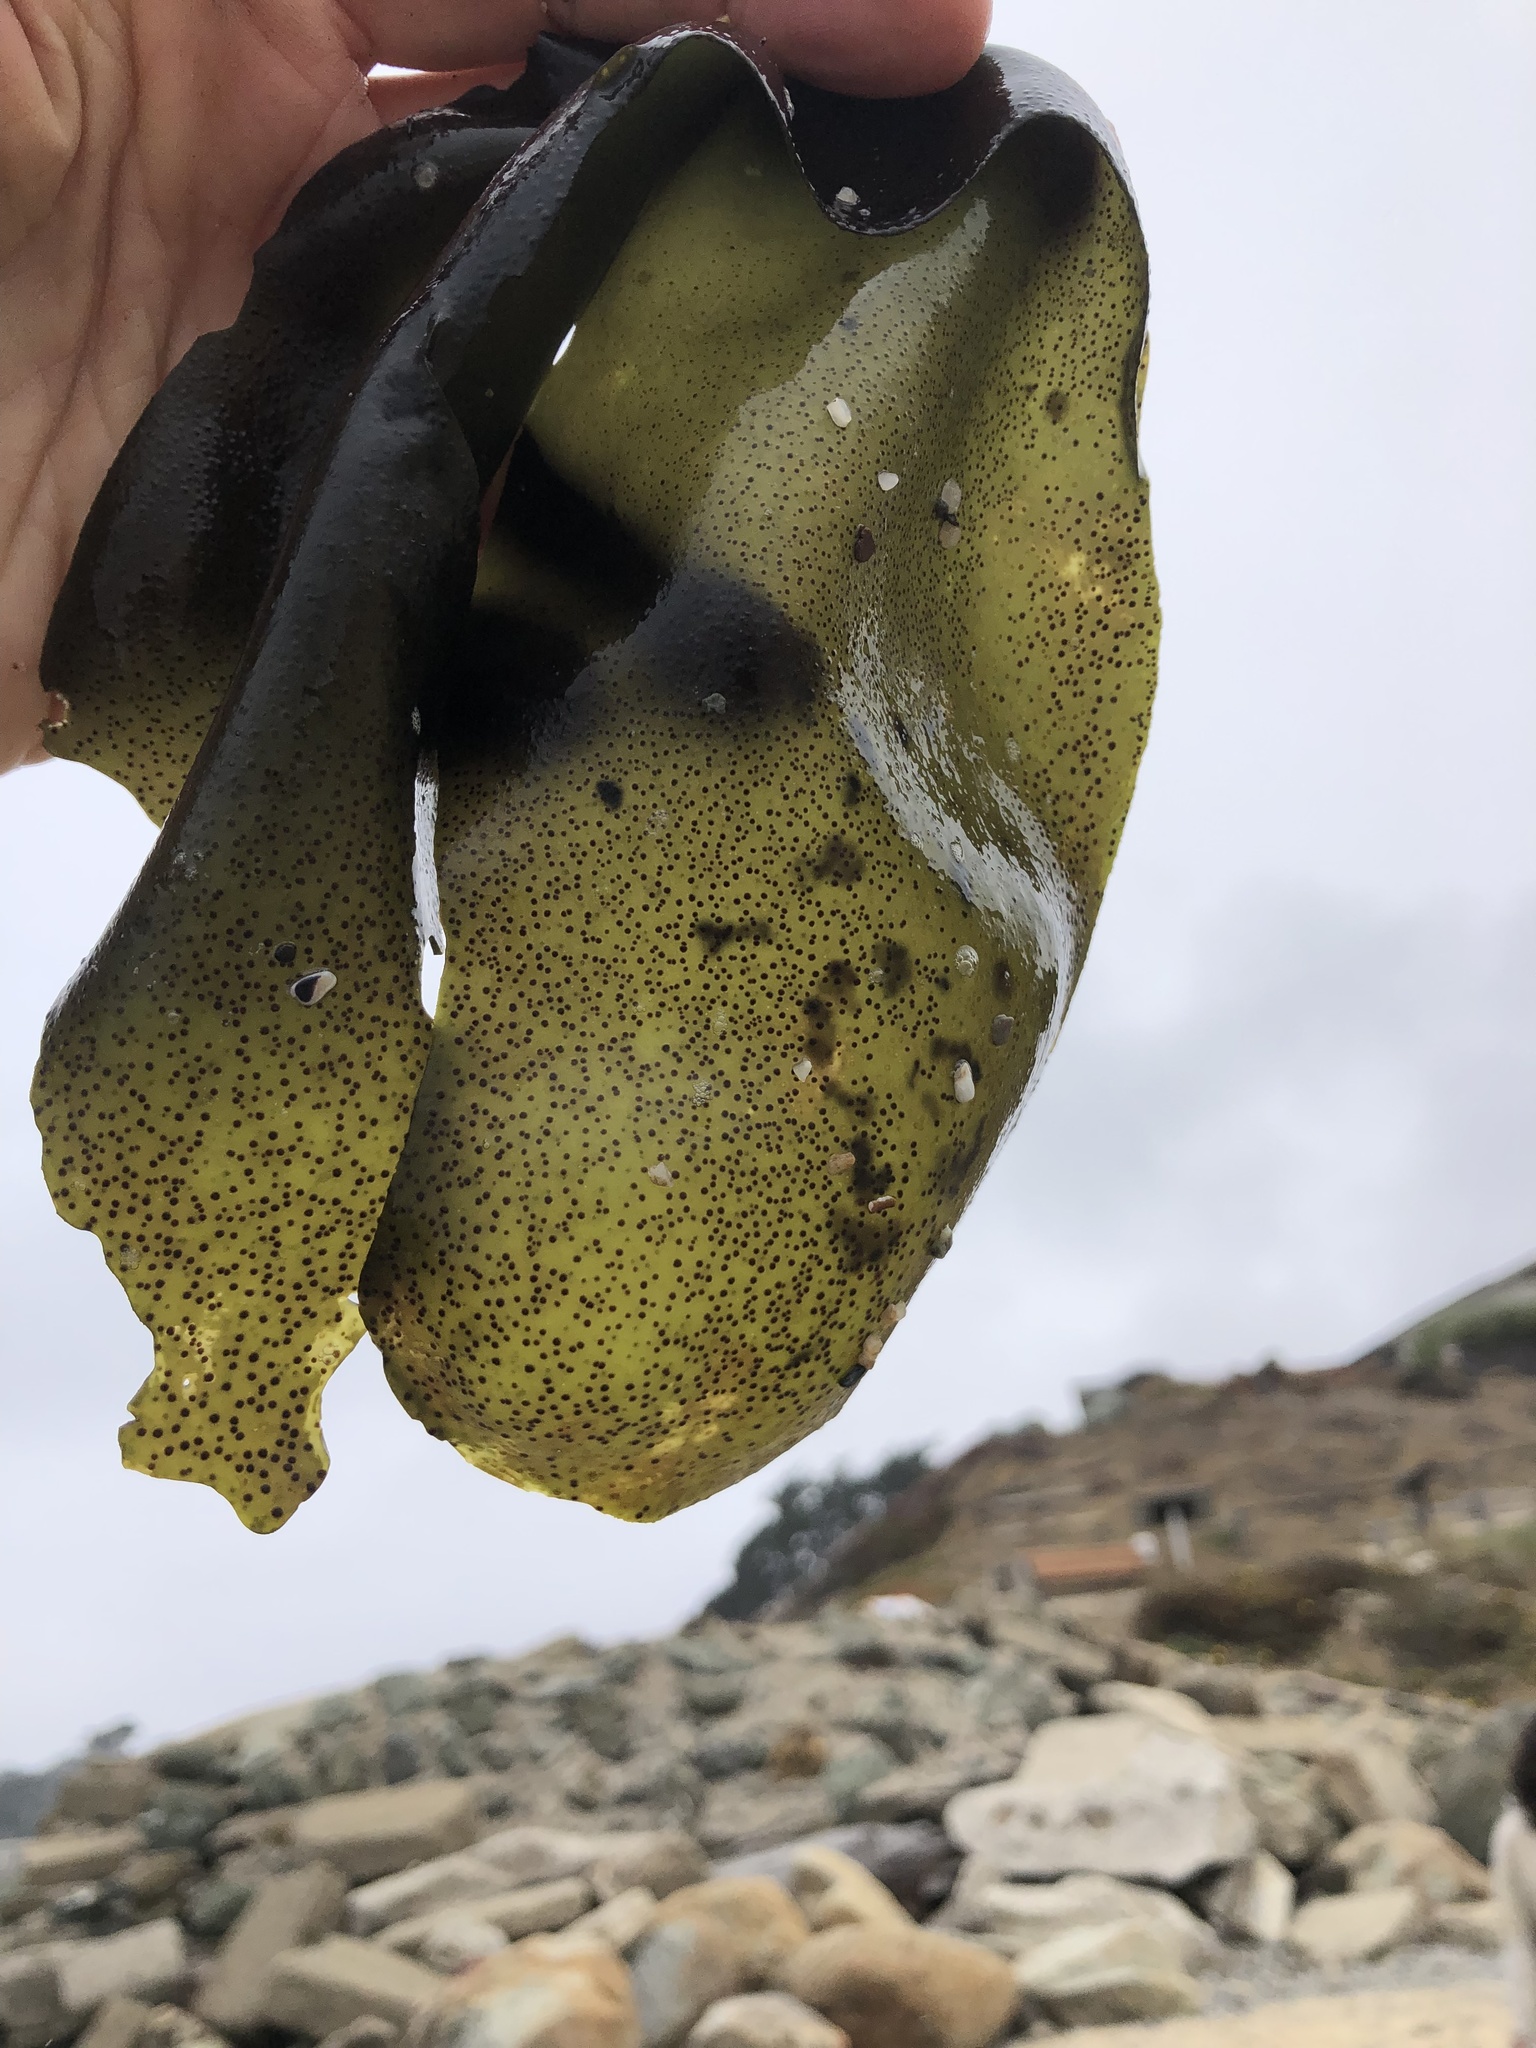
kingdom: Plantae
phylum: Rhodophyta
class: Florideophyceae
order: Gigartinales
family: Gigartinaceae
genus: Mazzaella
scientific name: Mazzaella flaccida
